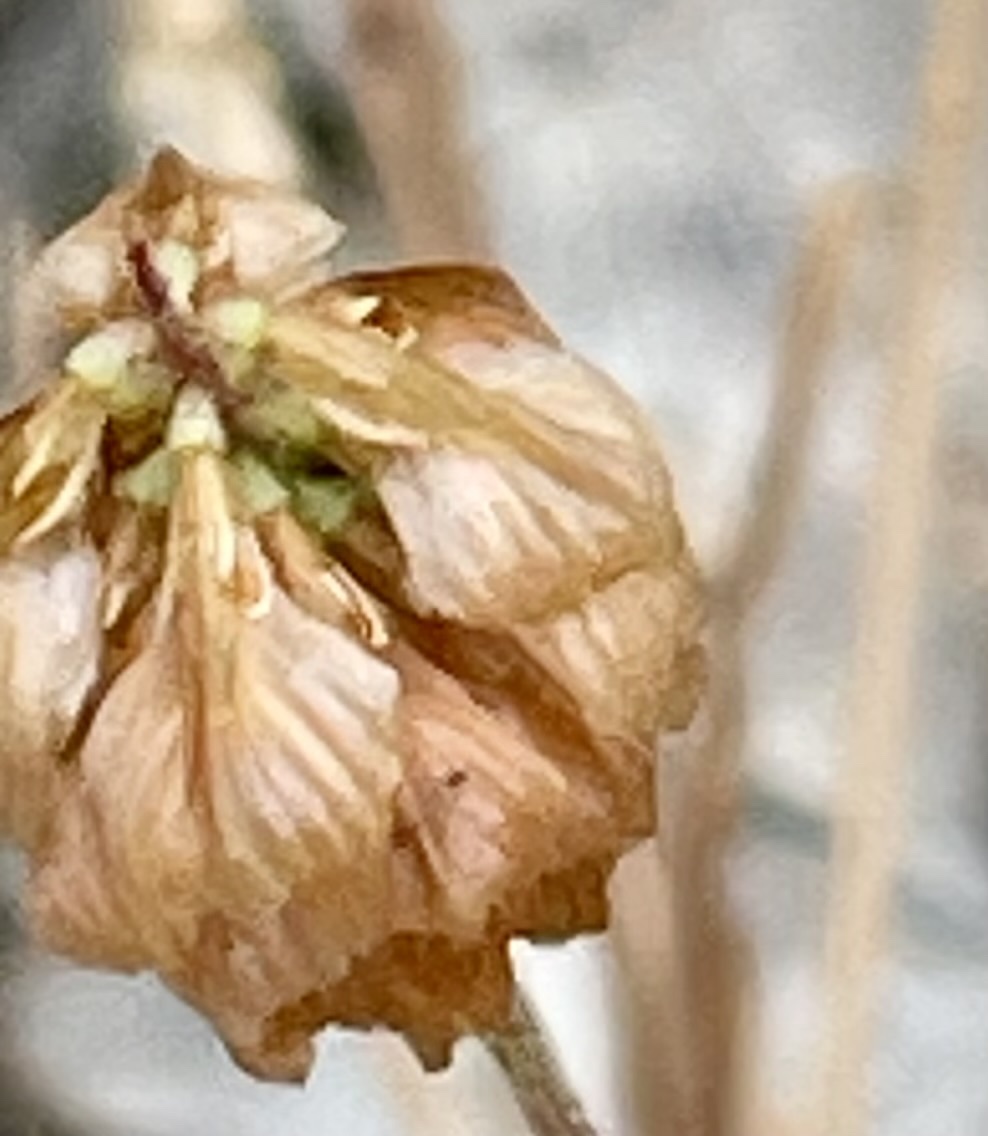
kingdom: Plantae
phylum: Tracheophyta
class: Magnoliopsida
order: Fabales
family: Fabaceae
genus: Trifolium
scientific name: Trifolium campestre
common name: Field clover
